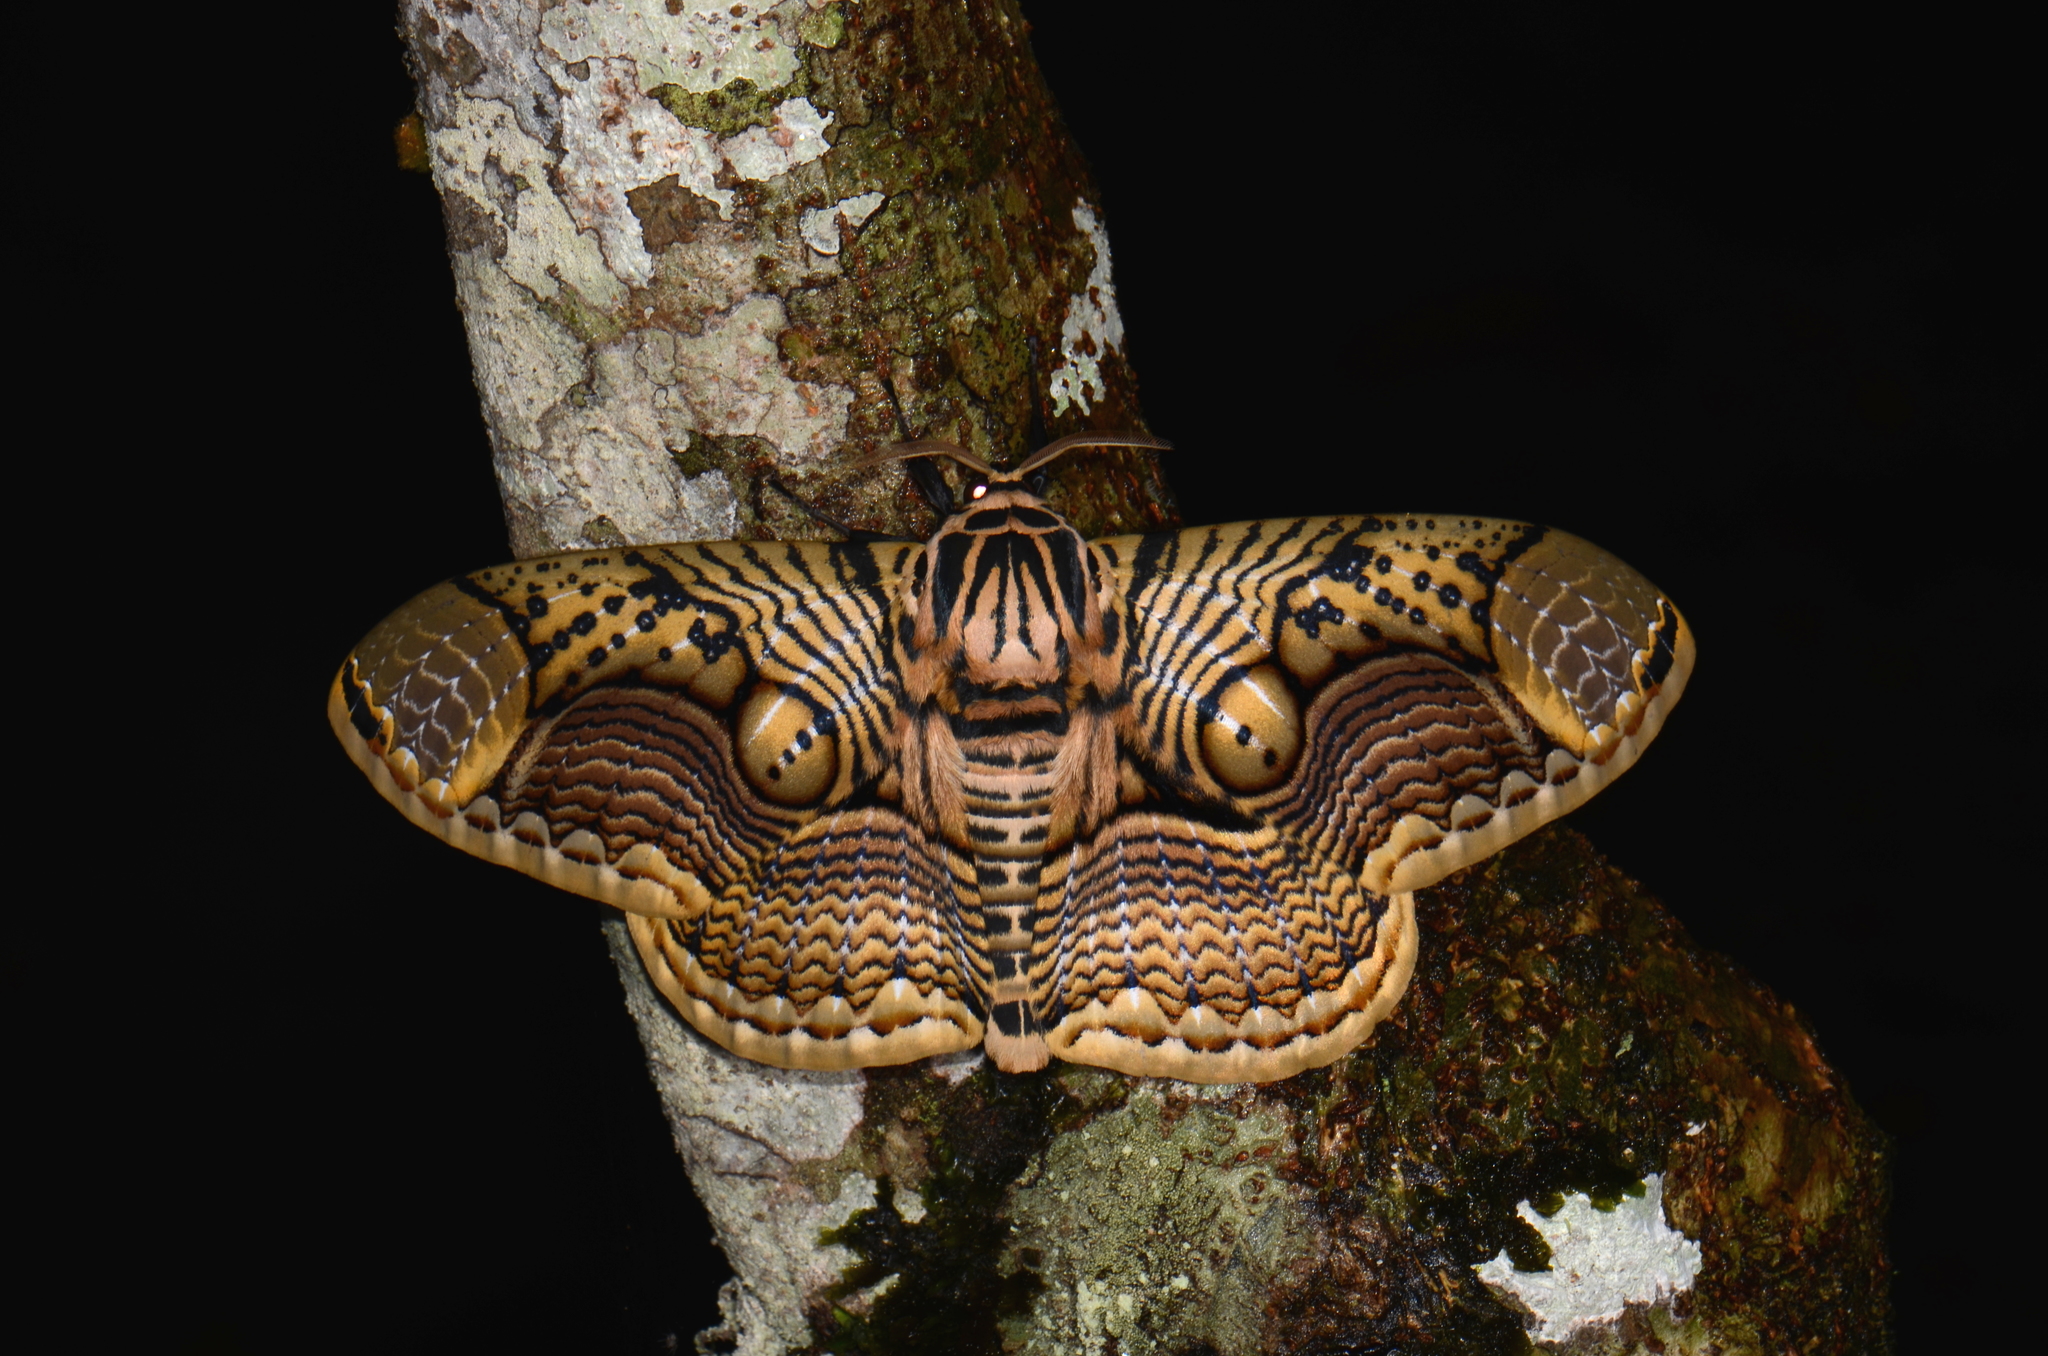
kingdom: Animalia
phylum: Arthropoda
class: Insecta
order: Lepidoptera
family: Brahmaeidae
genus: Brahmaea
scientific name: Brahmaea hearseyi
